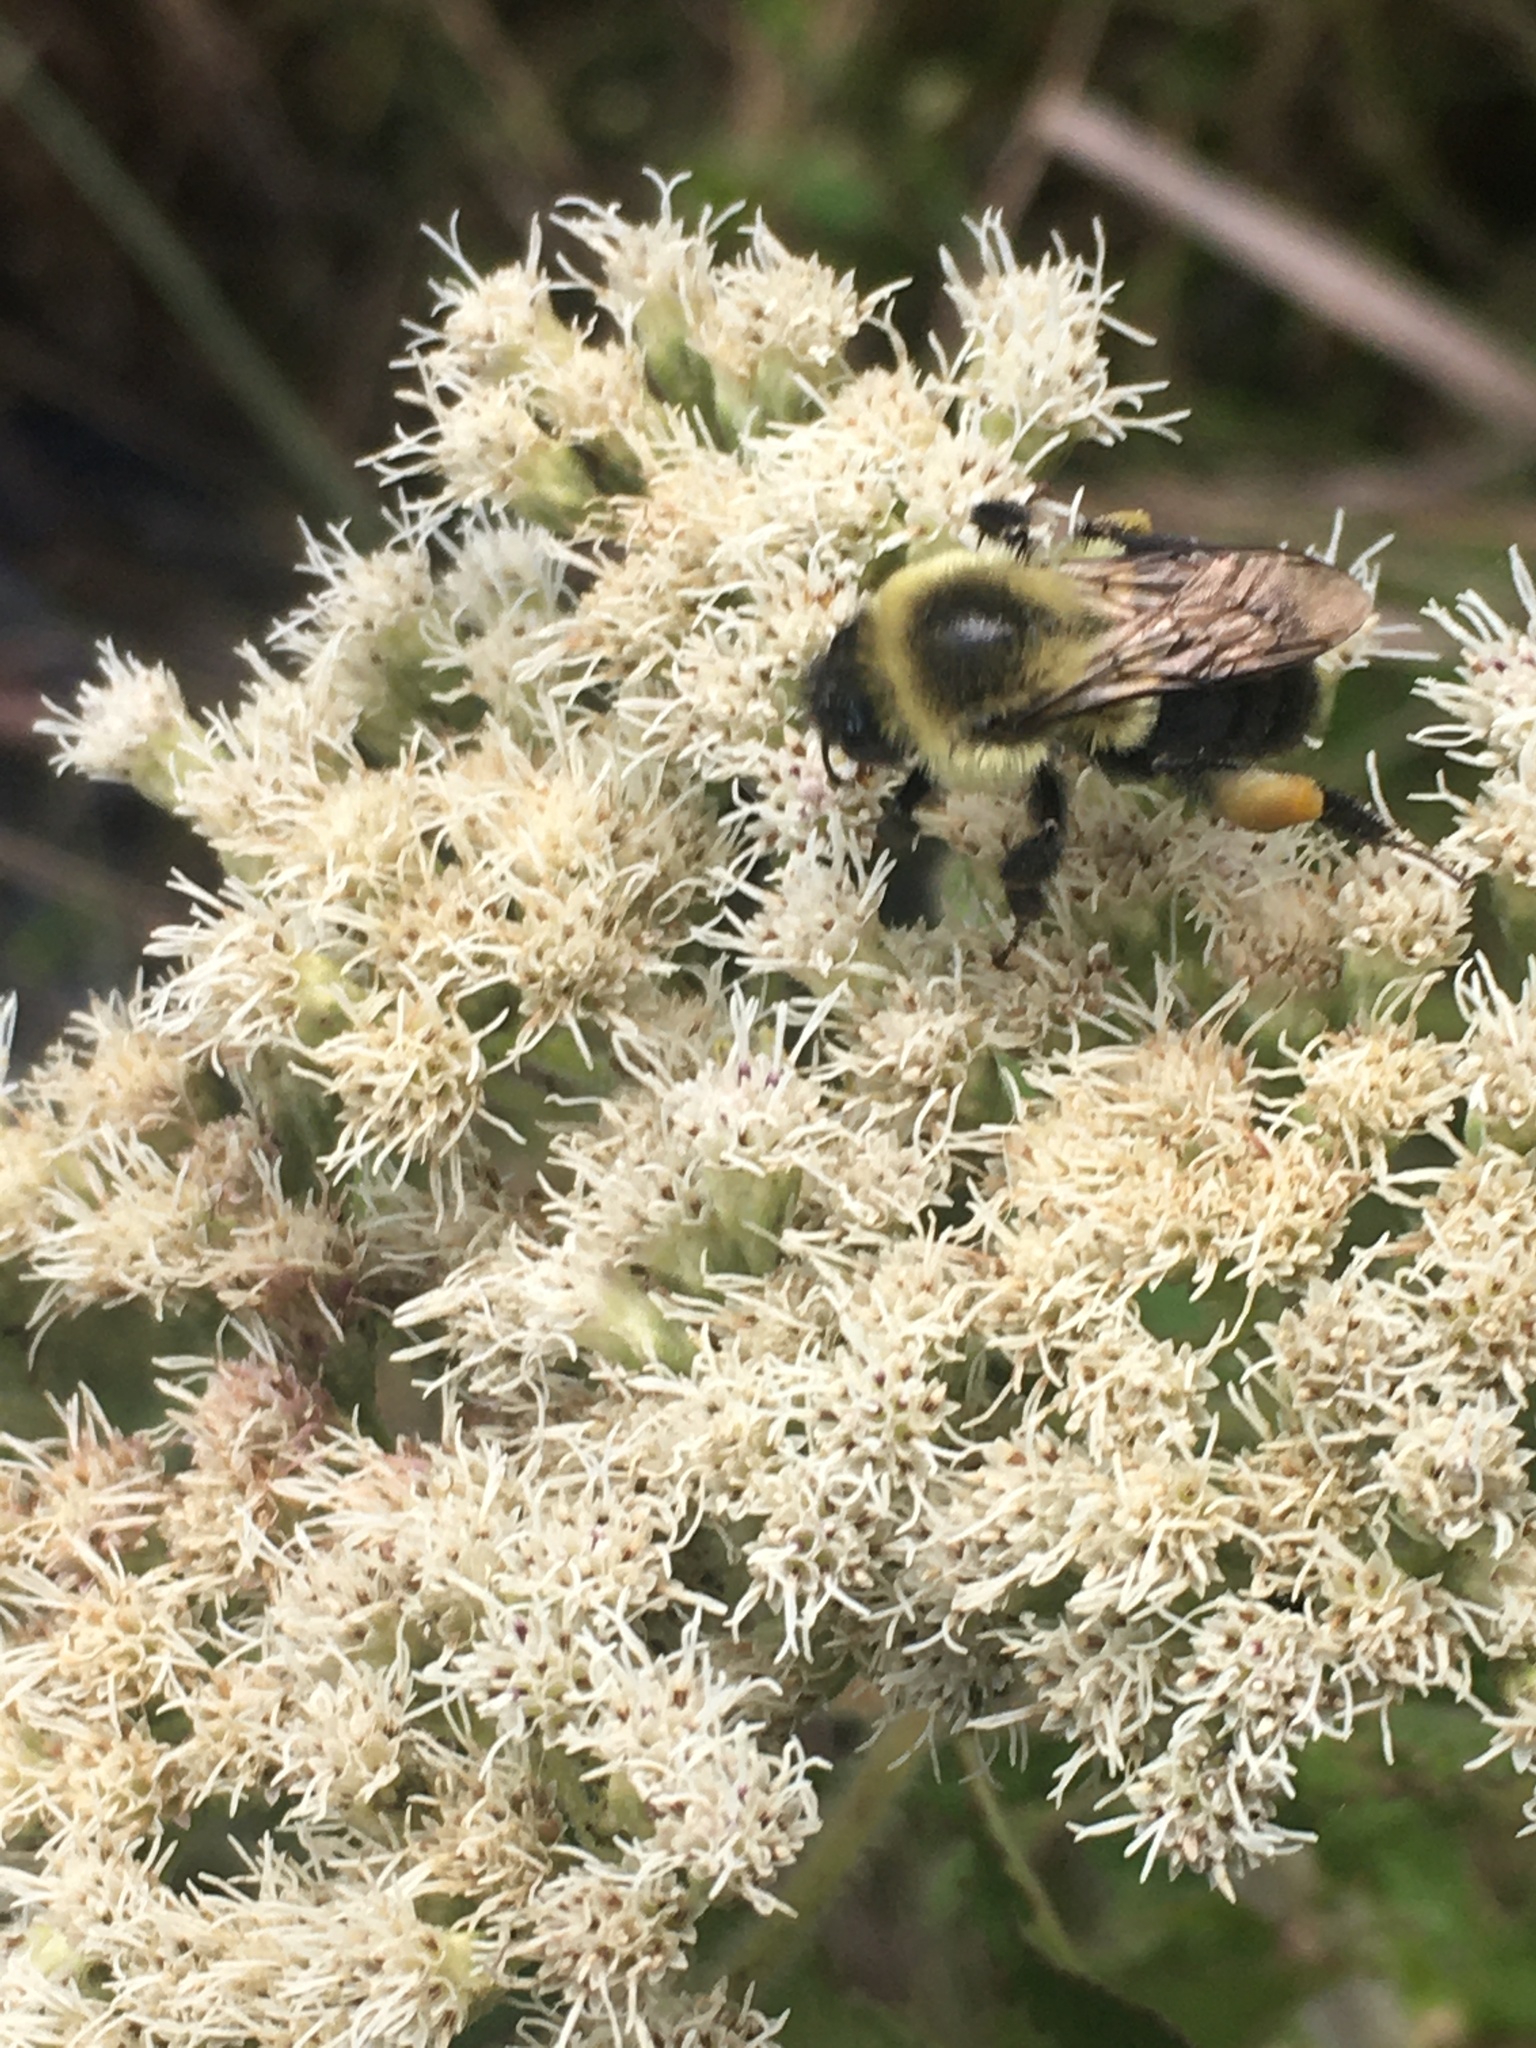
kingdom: Animalia
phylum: Arthropoda
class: Insecta
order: Hymenoptera
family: Apidae
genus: Bombus
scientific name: Bombus impatiens
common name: Common eastern bumble bee
